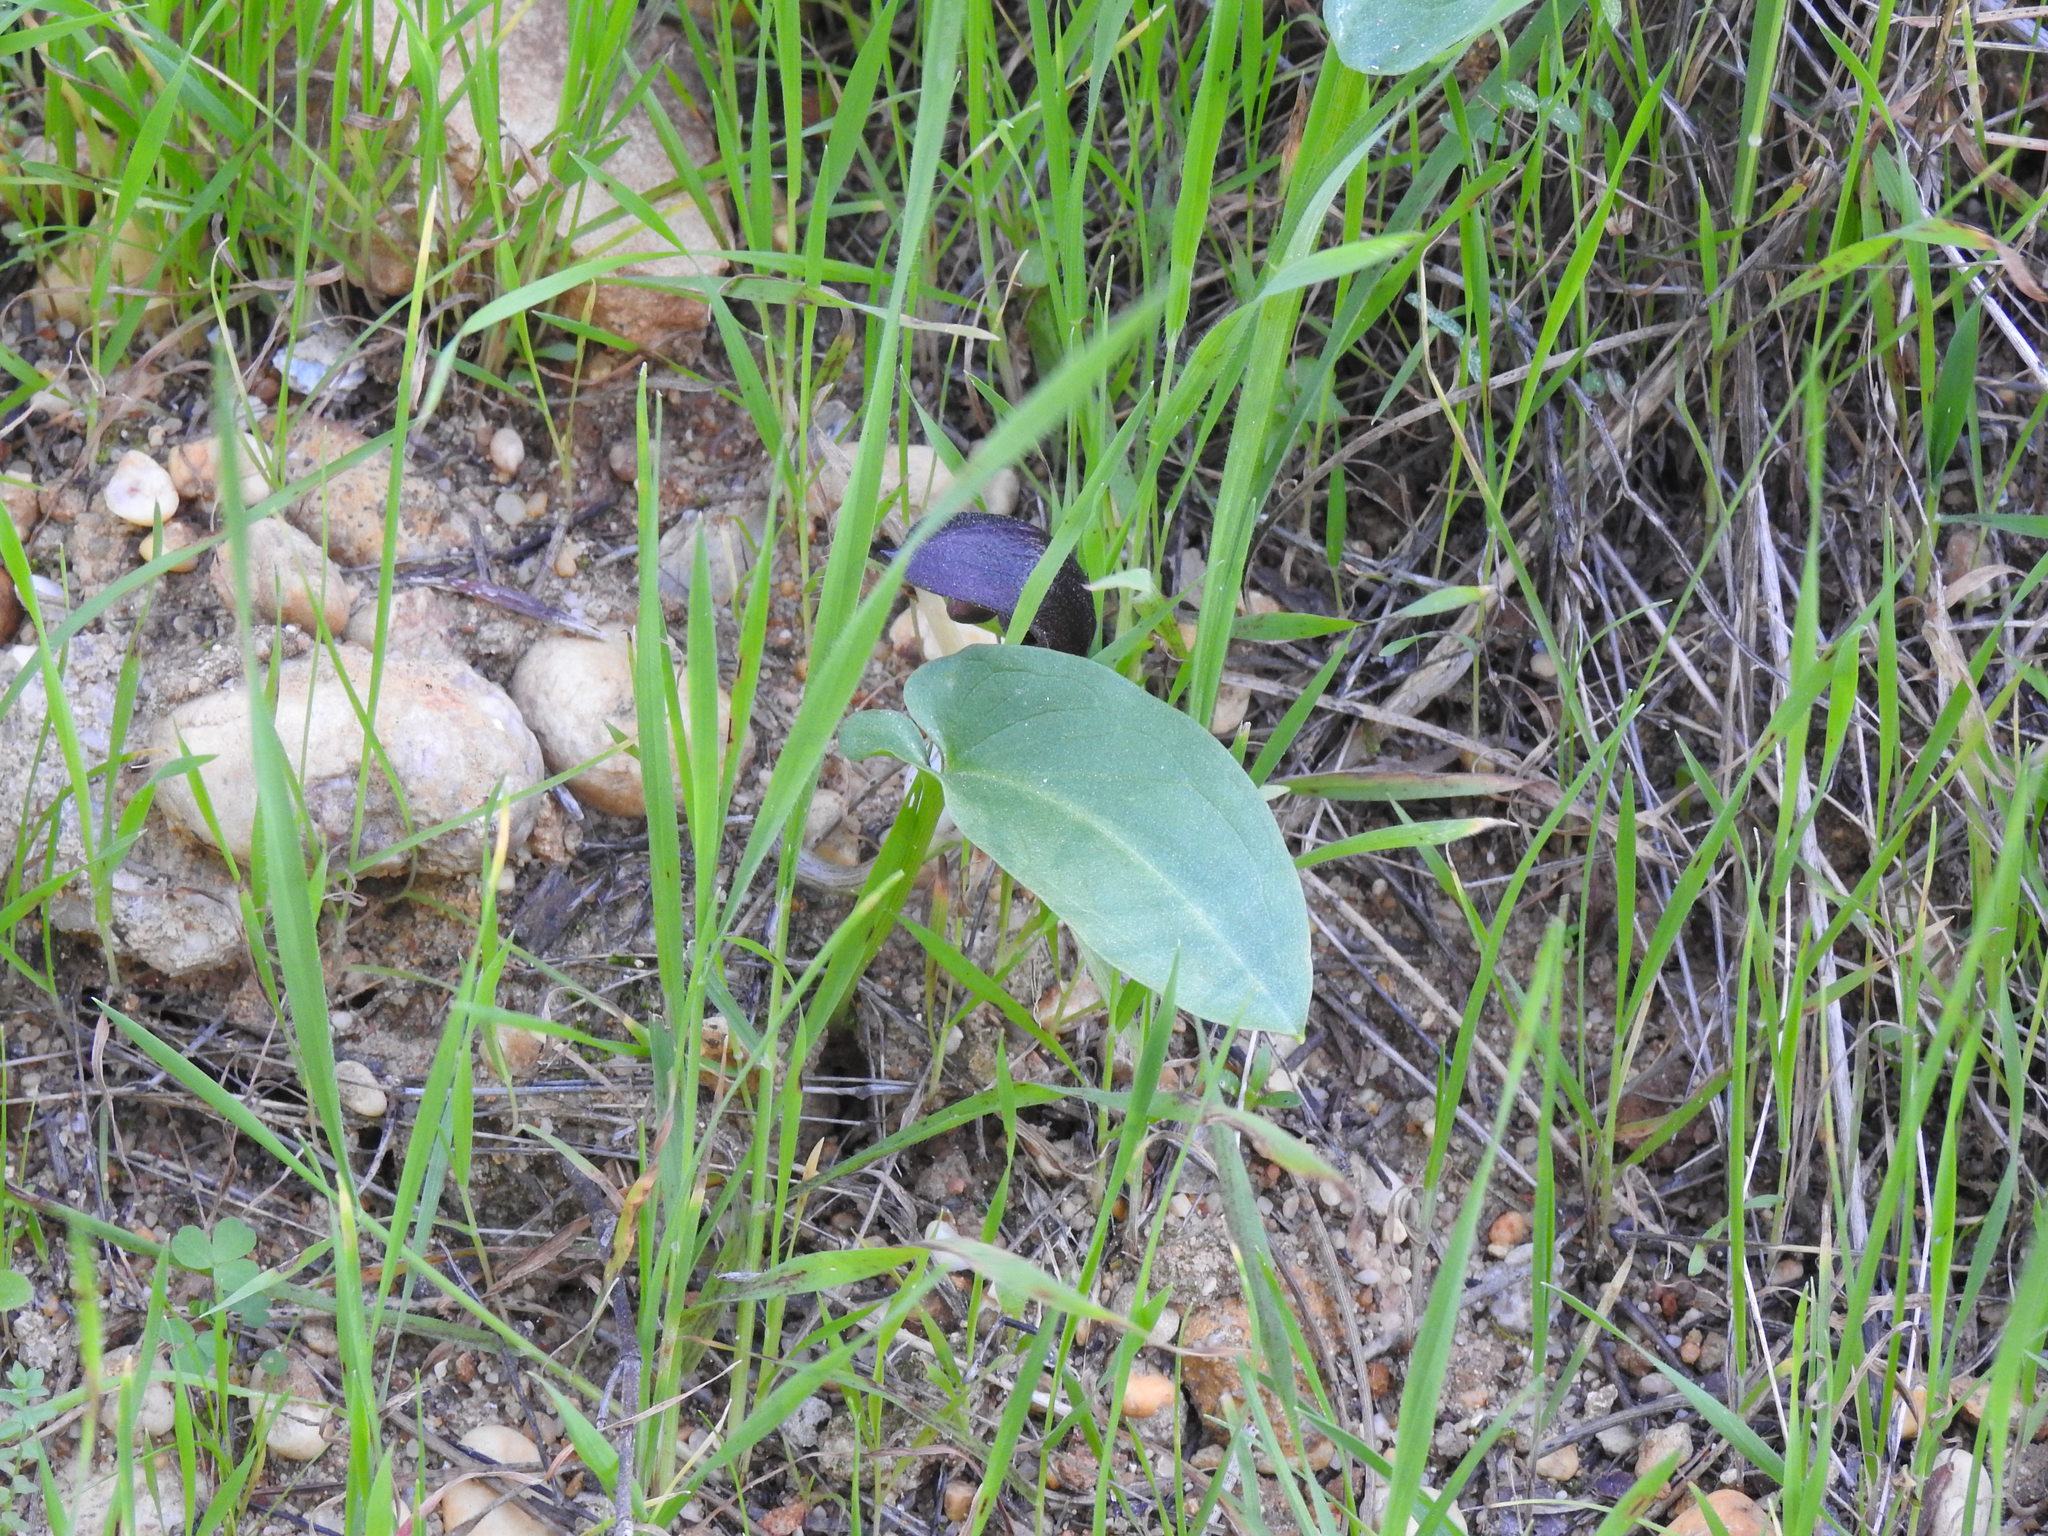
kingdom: Plantae
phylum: Tracheophyta
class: Liliopsida
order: Alismatales
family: Araceae
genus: Arisarum
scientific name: Arisarum simorrhinum
